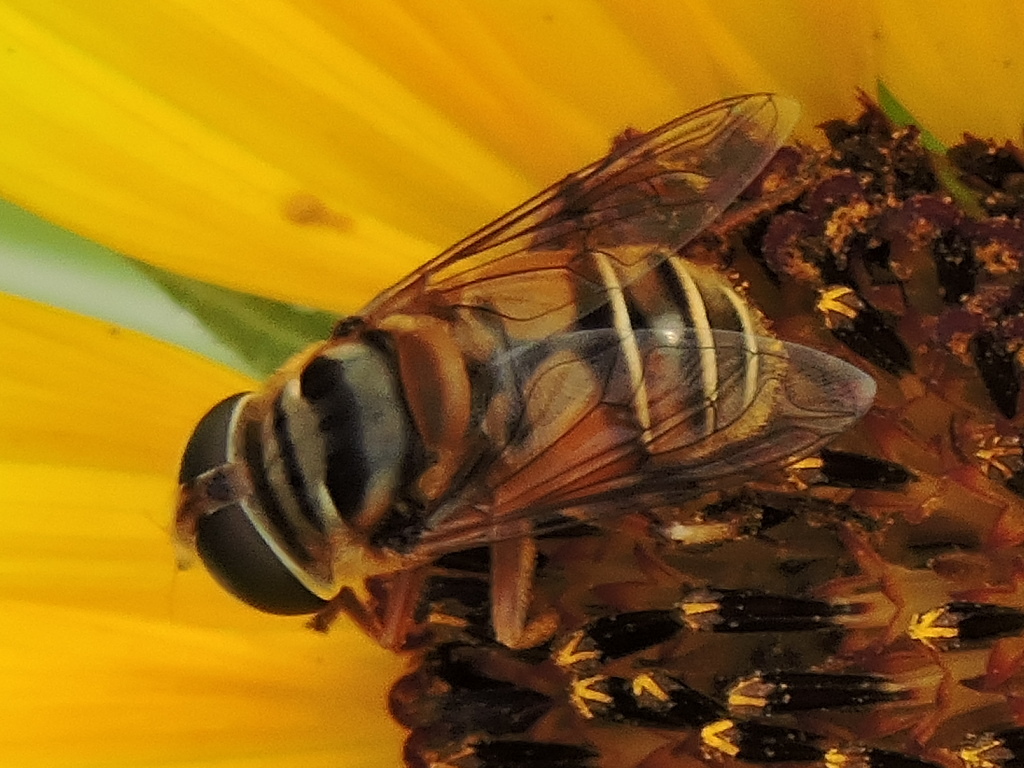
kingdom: Animalia
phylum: Arthropoda
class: Insecta
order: Diptera
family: Syrphidae
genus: Palpada
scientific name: Palpada vinetorum
